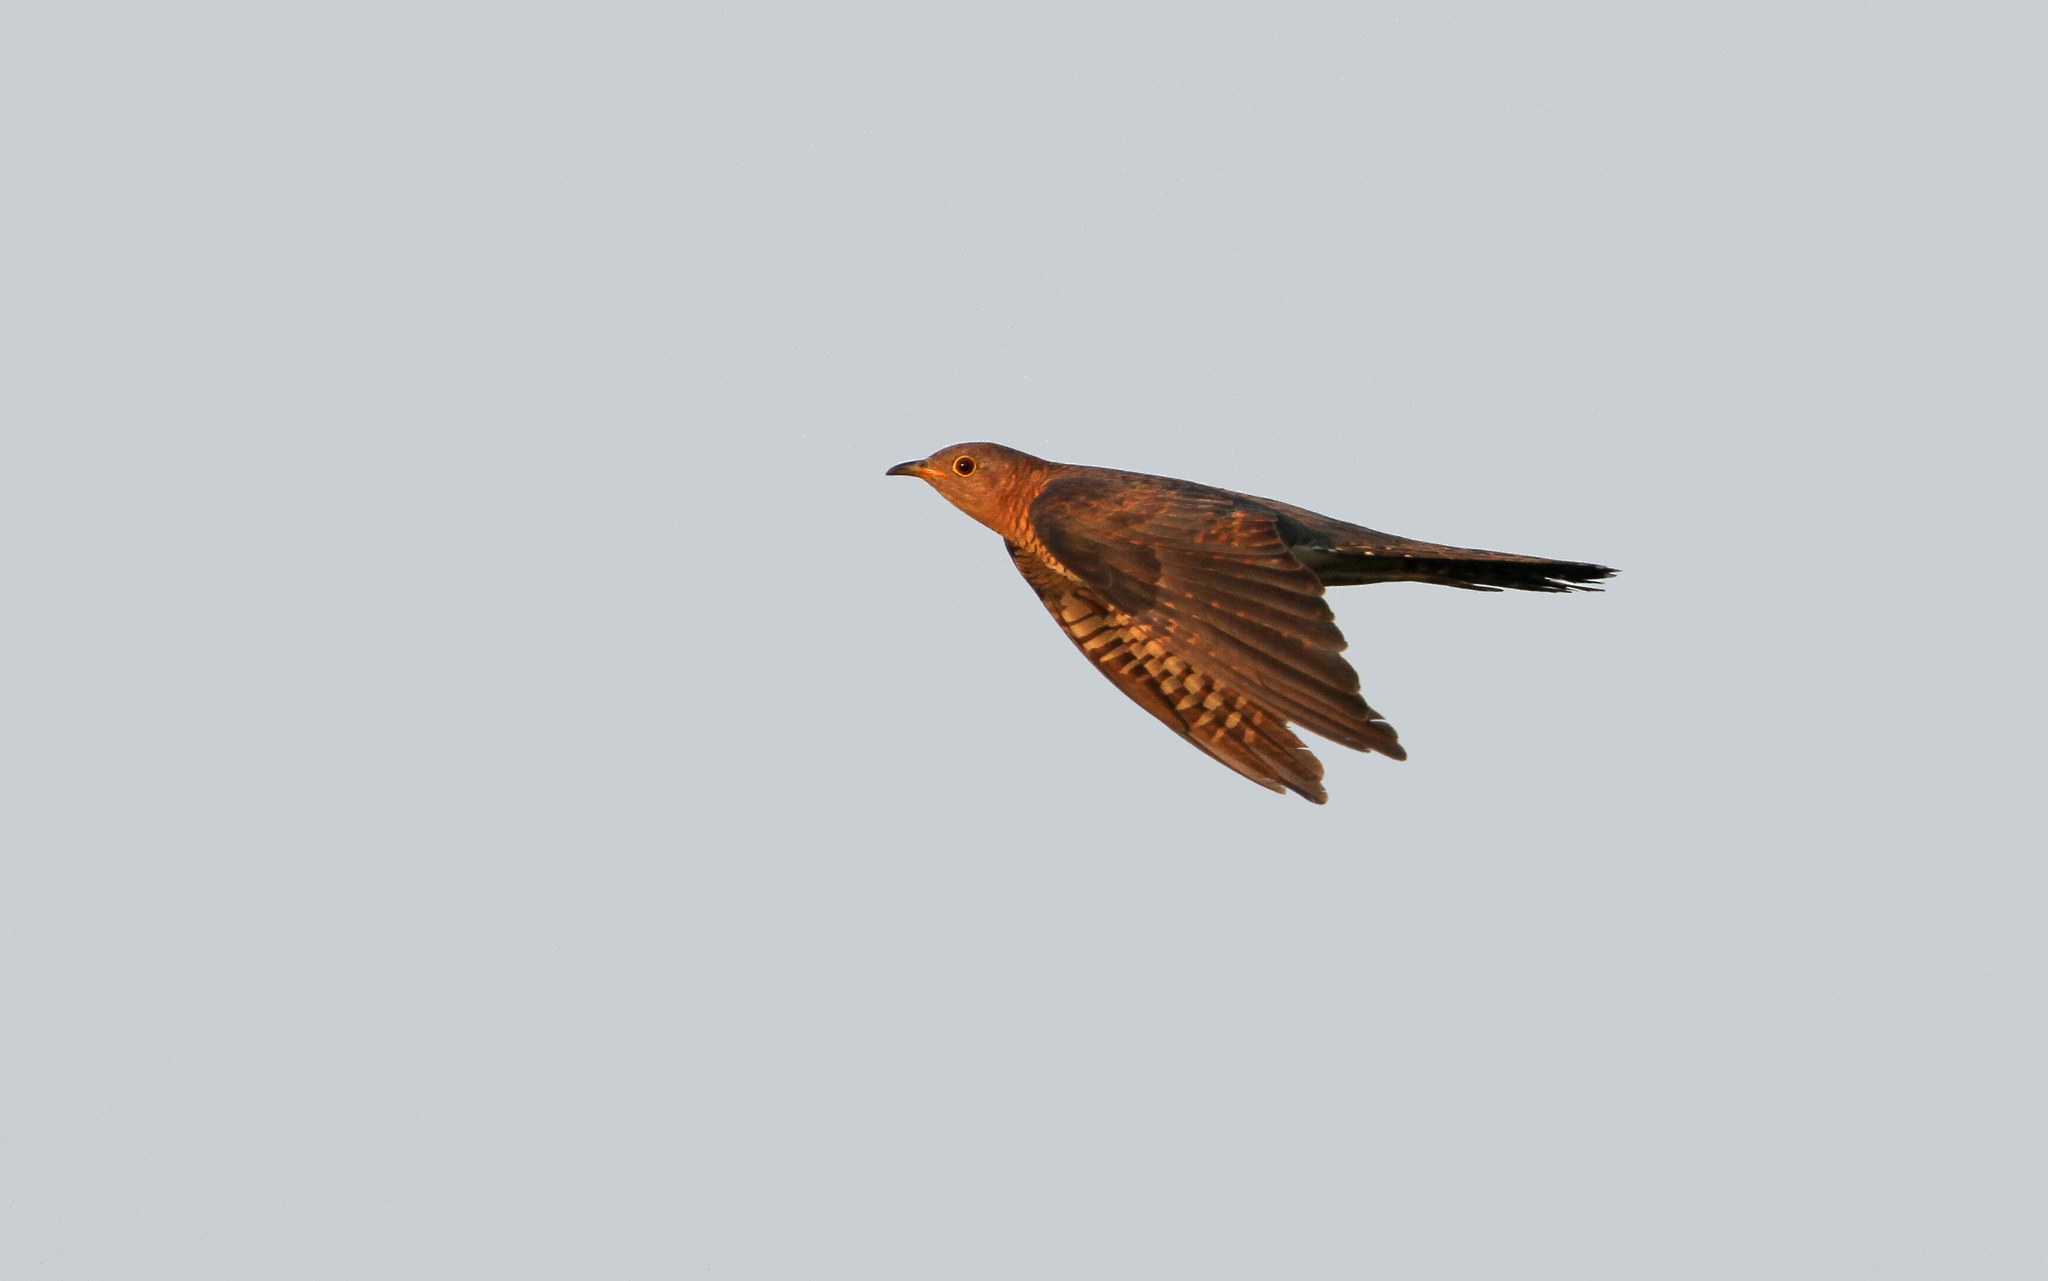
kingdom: Animalia
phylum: Chordata
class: Aves
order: Cuculiformes
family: Cuculidae
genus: Cuculus
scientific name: Cuculus canorus
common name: Common cuckoo
